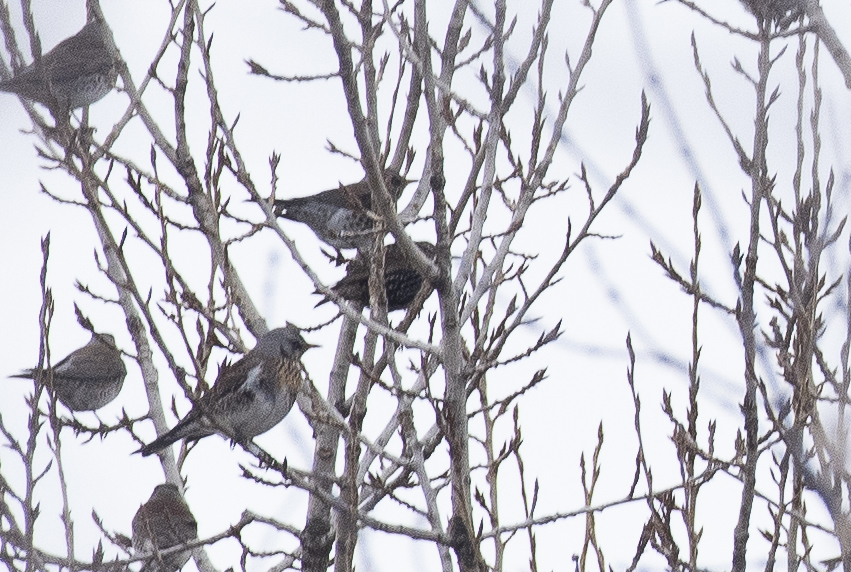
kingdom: Animalia
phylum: Chordata
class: Aves
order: Passeriformes
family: Sturnidae
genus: Sturnus
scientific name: Sturnus vulgaris
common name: Common starling
